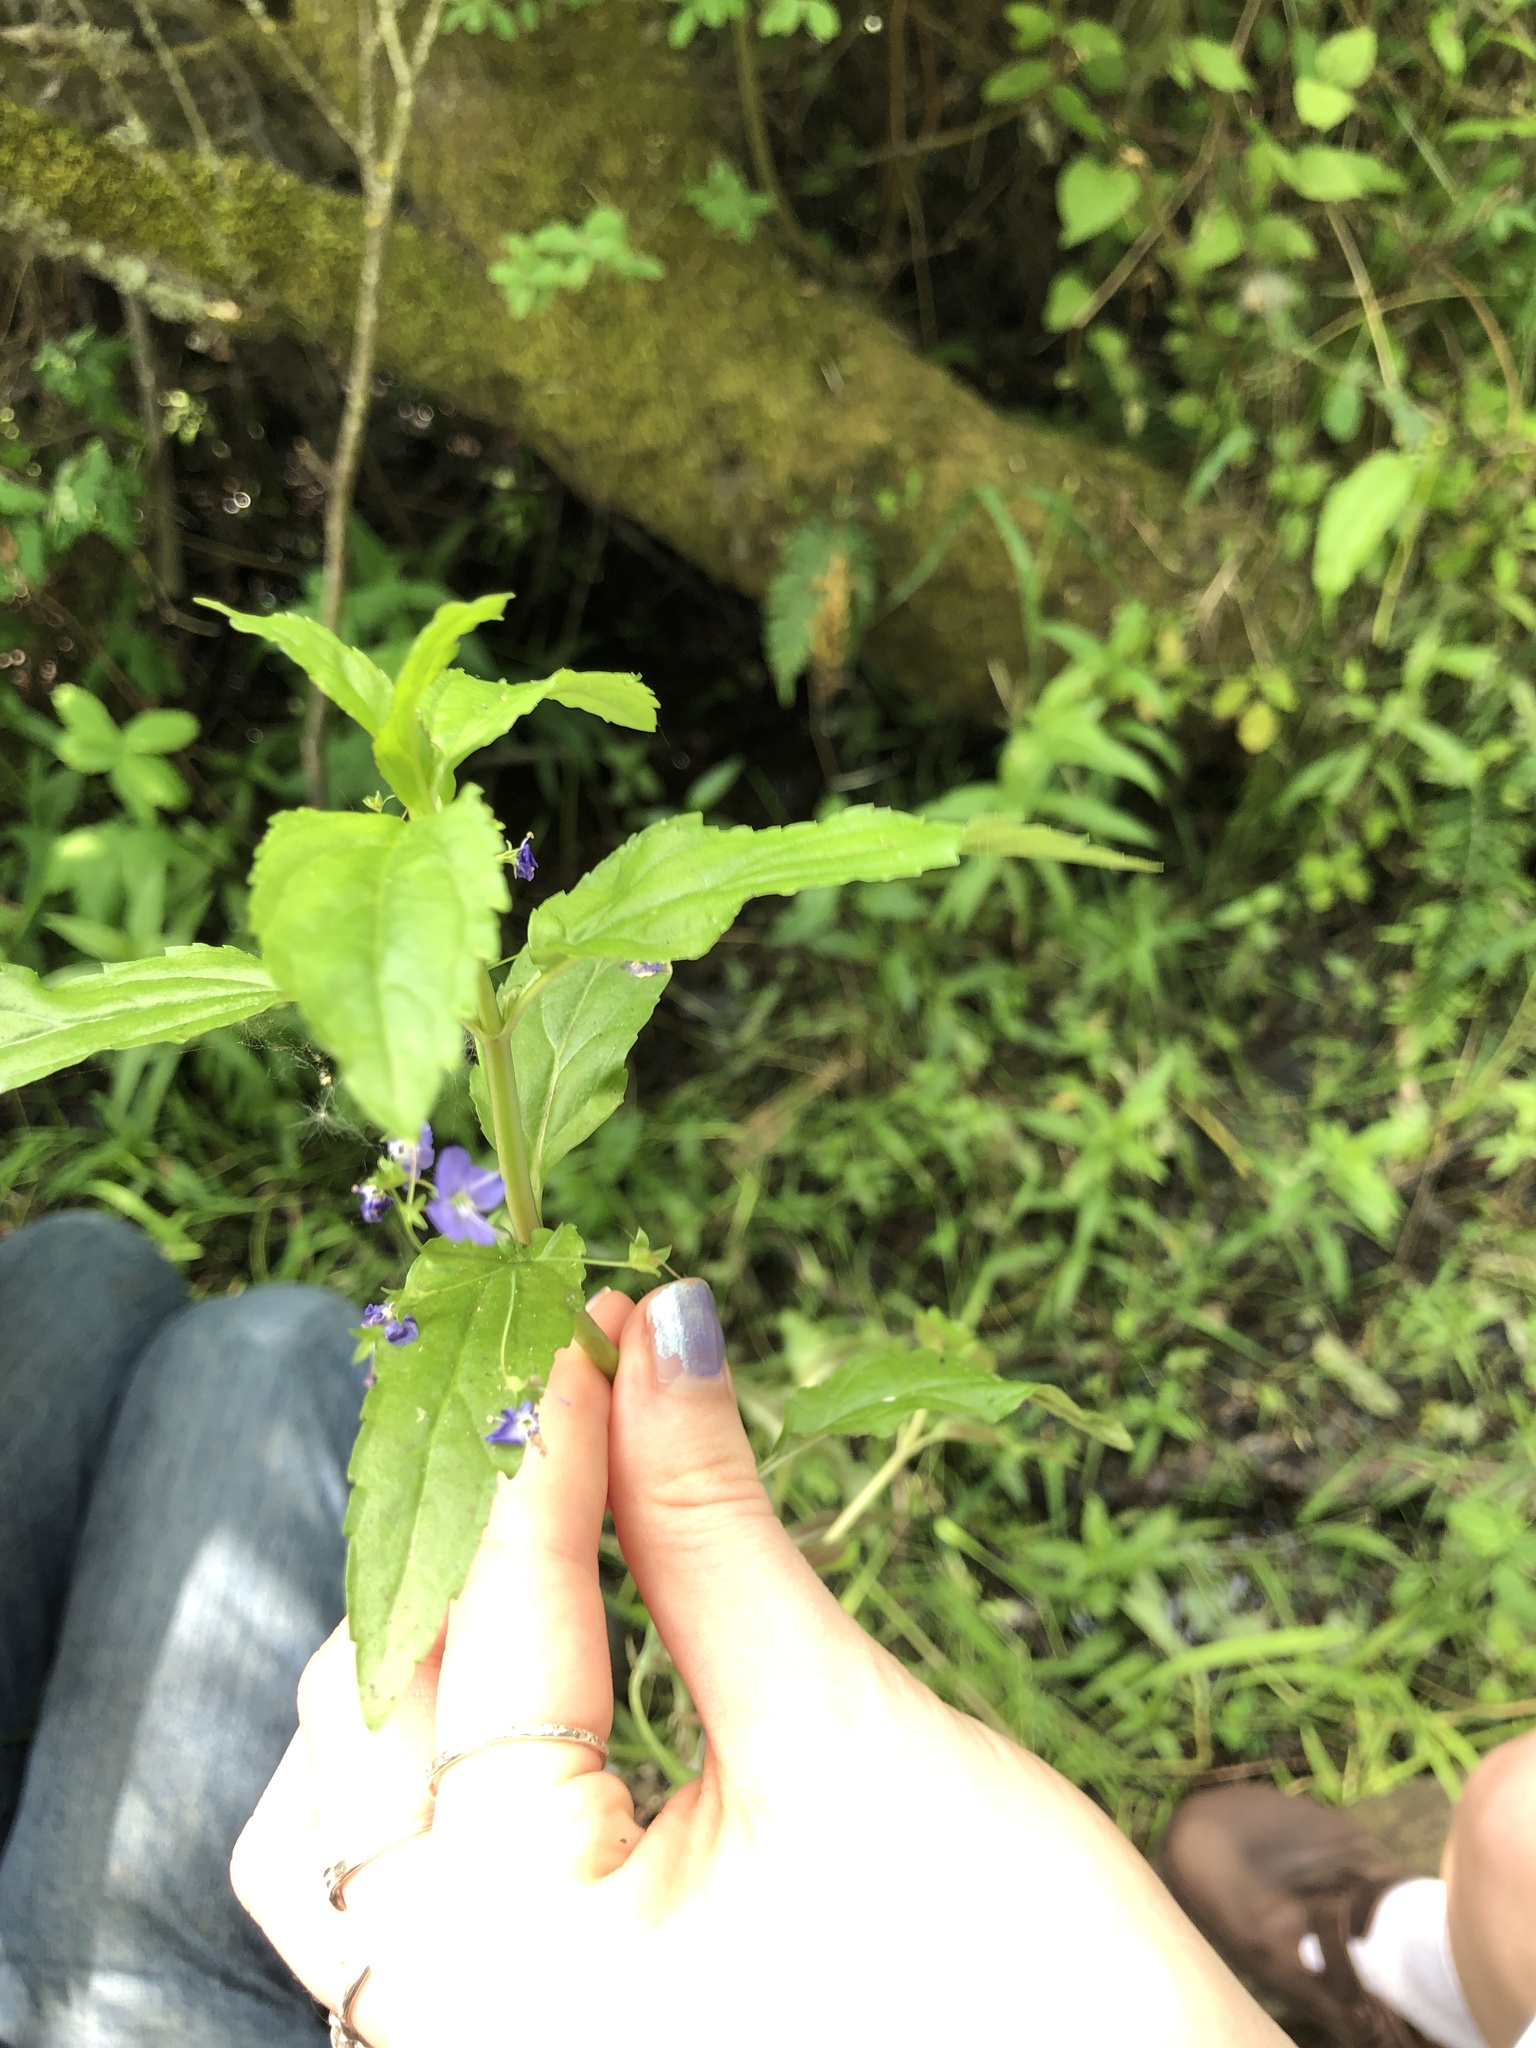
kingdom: Plantae
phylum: Tracheophyta
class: Magnoliopsida
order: Lamiales
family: Plantaginaceae
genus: Veronica
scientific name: Veronica americana
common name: American brooklime
